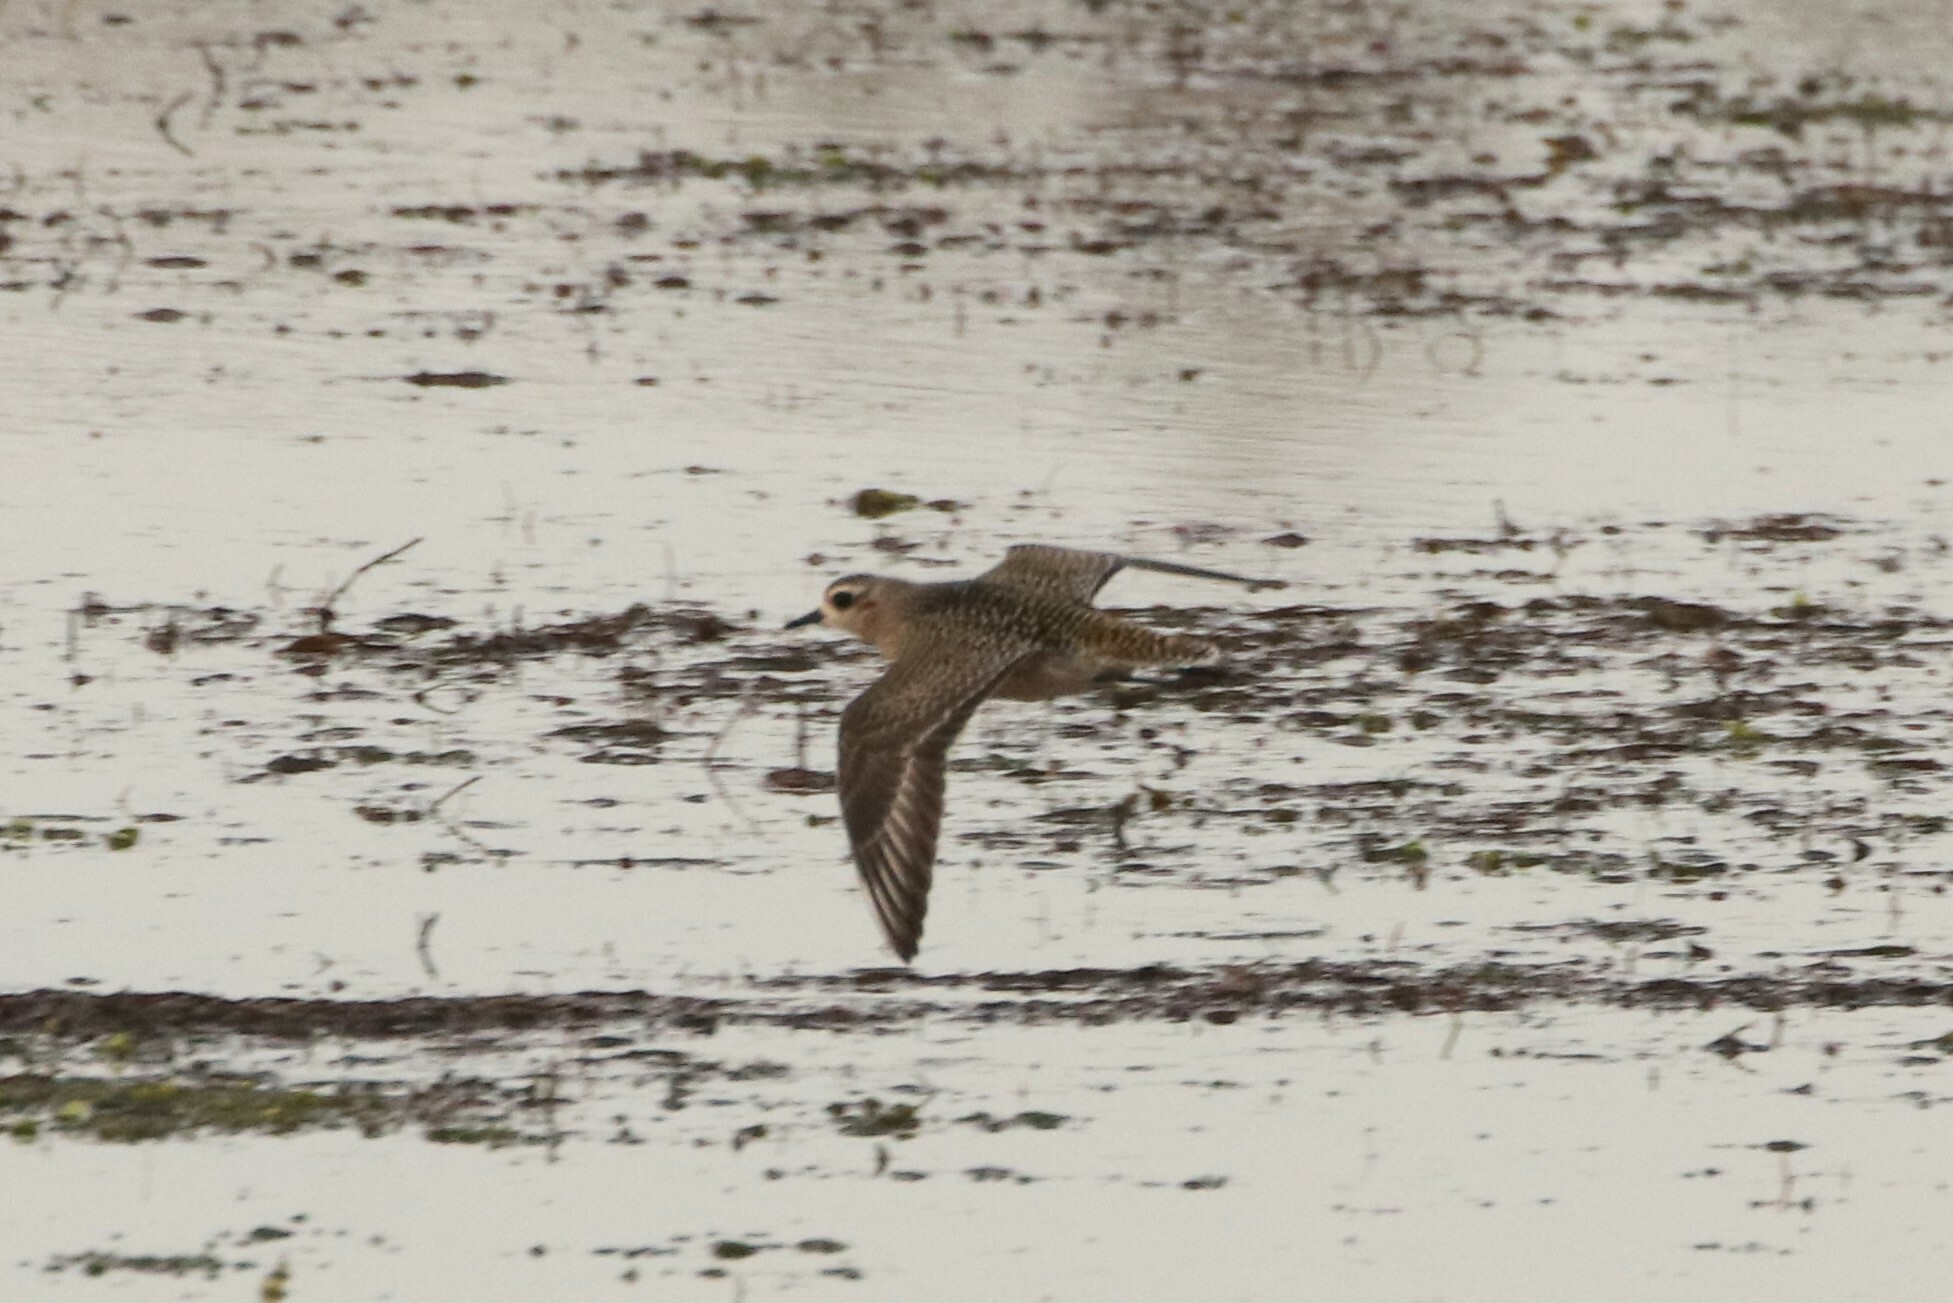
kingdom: Animalia
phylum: Chordata
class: Aves
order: Charadriiformes
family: Charadriidae
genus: Pluvialis
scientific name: Pluvialis dominica
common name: American golden plover
